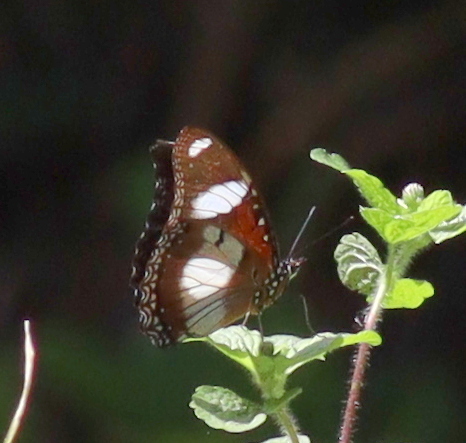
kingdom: Animalia
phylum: Arthropoda
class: Insecta
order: Lepidoptera
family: Nymphalidae
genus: Hypolimnas
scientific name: Hypolimnas misippus
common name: False plain tiger
